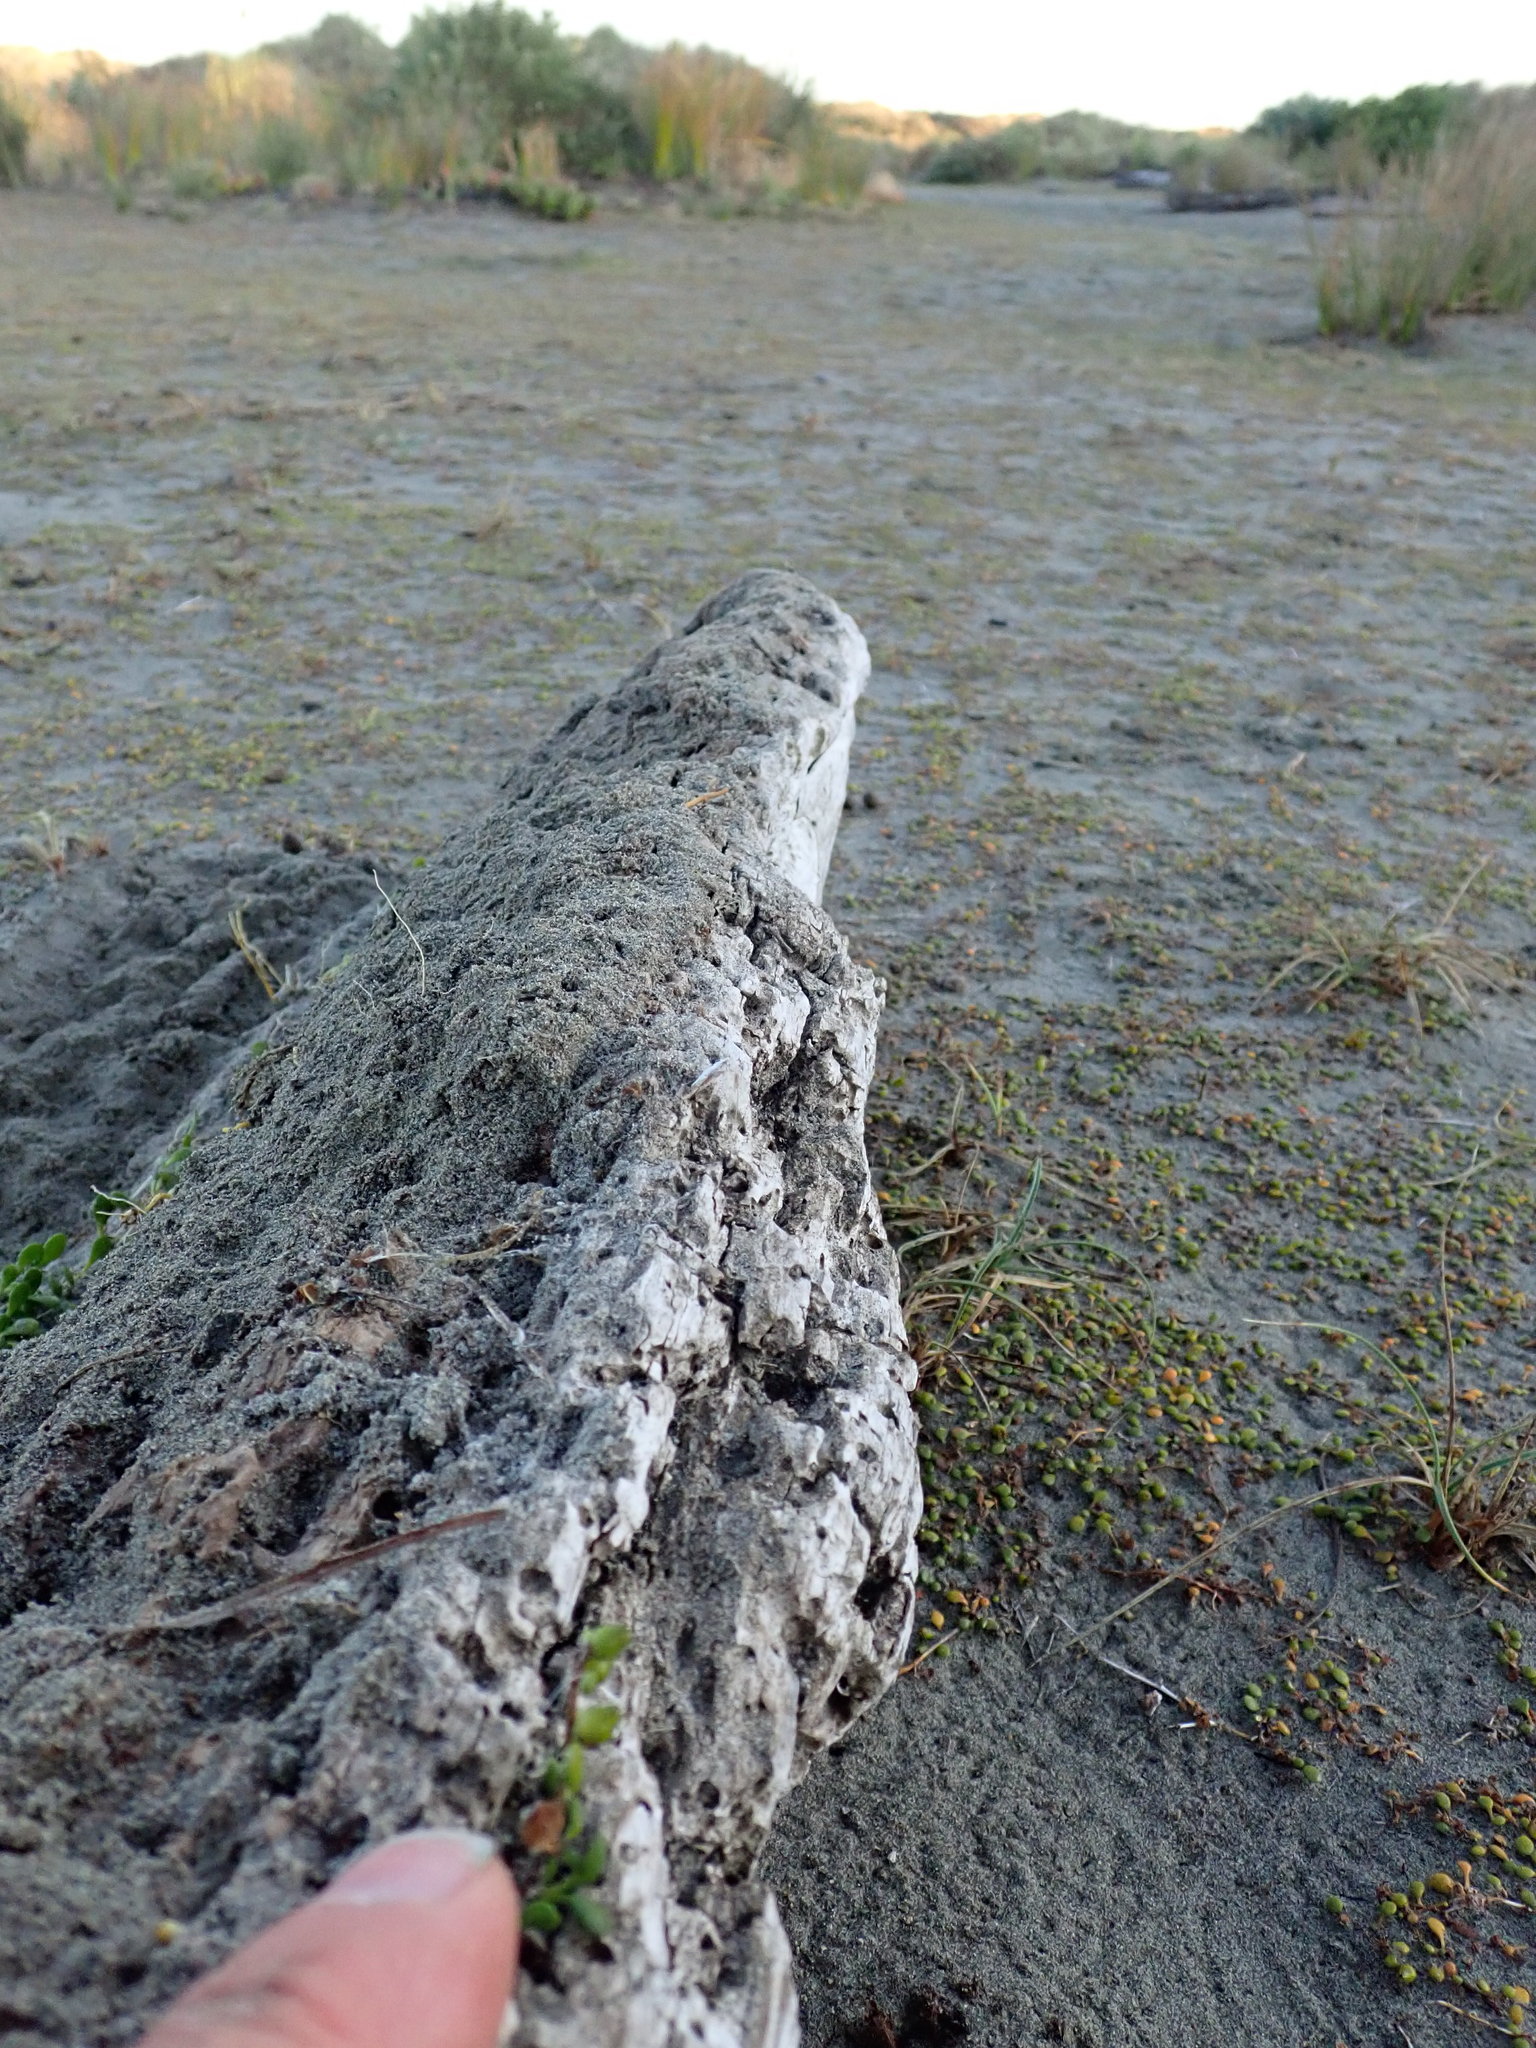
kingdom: Animalia
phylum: Arthropoda
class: Insecta
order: Coleoptera
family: Scarabaeidae
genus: Pericoptus
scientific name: Pericoptus truncatus
